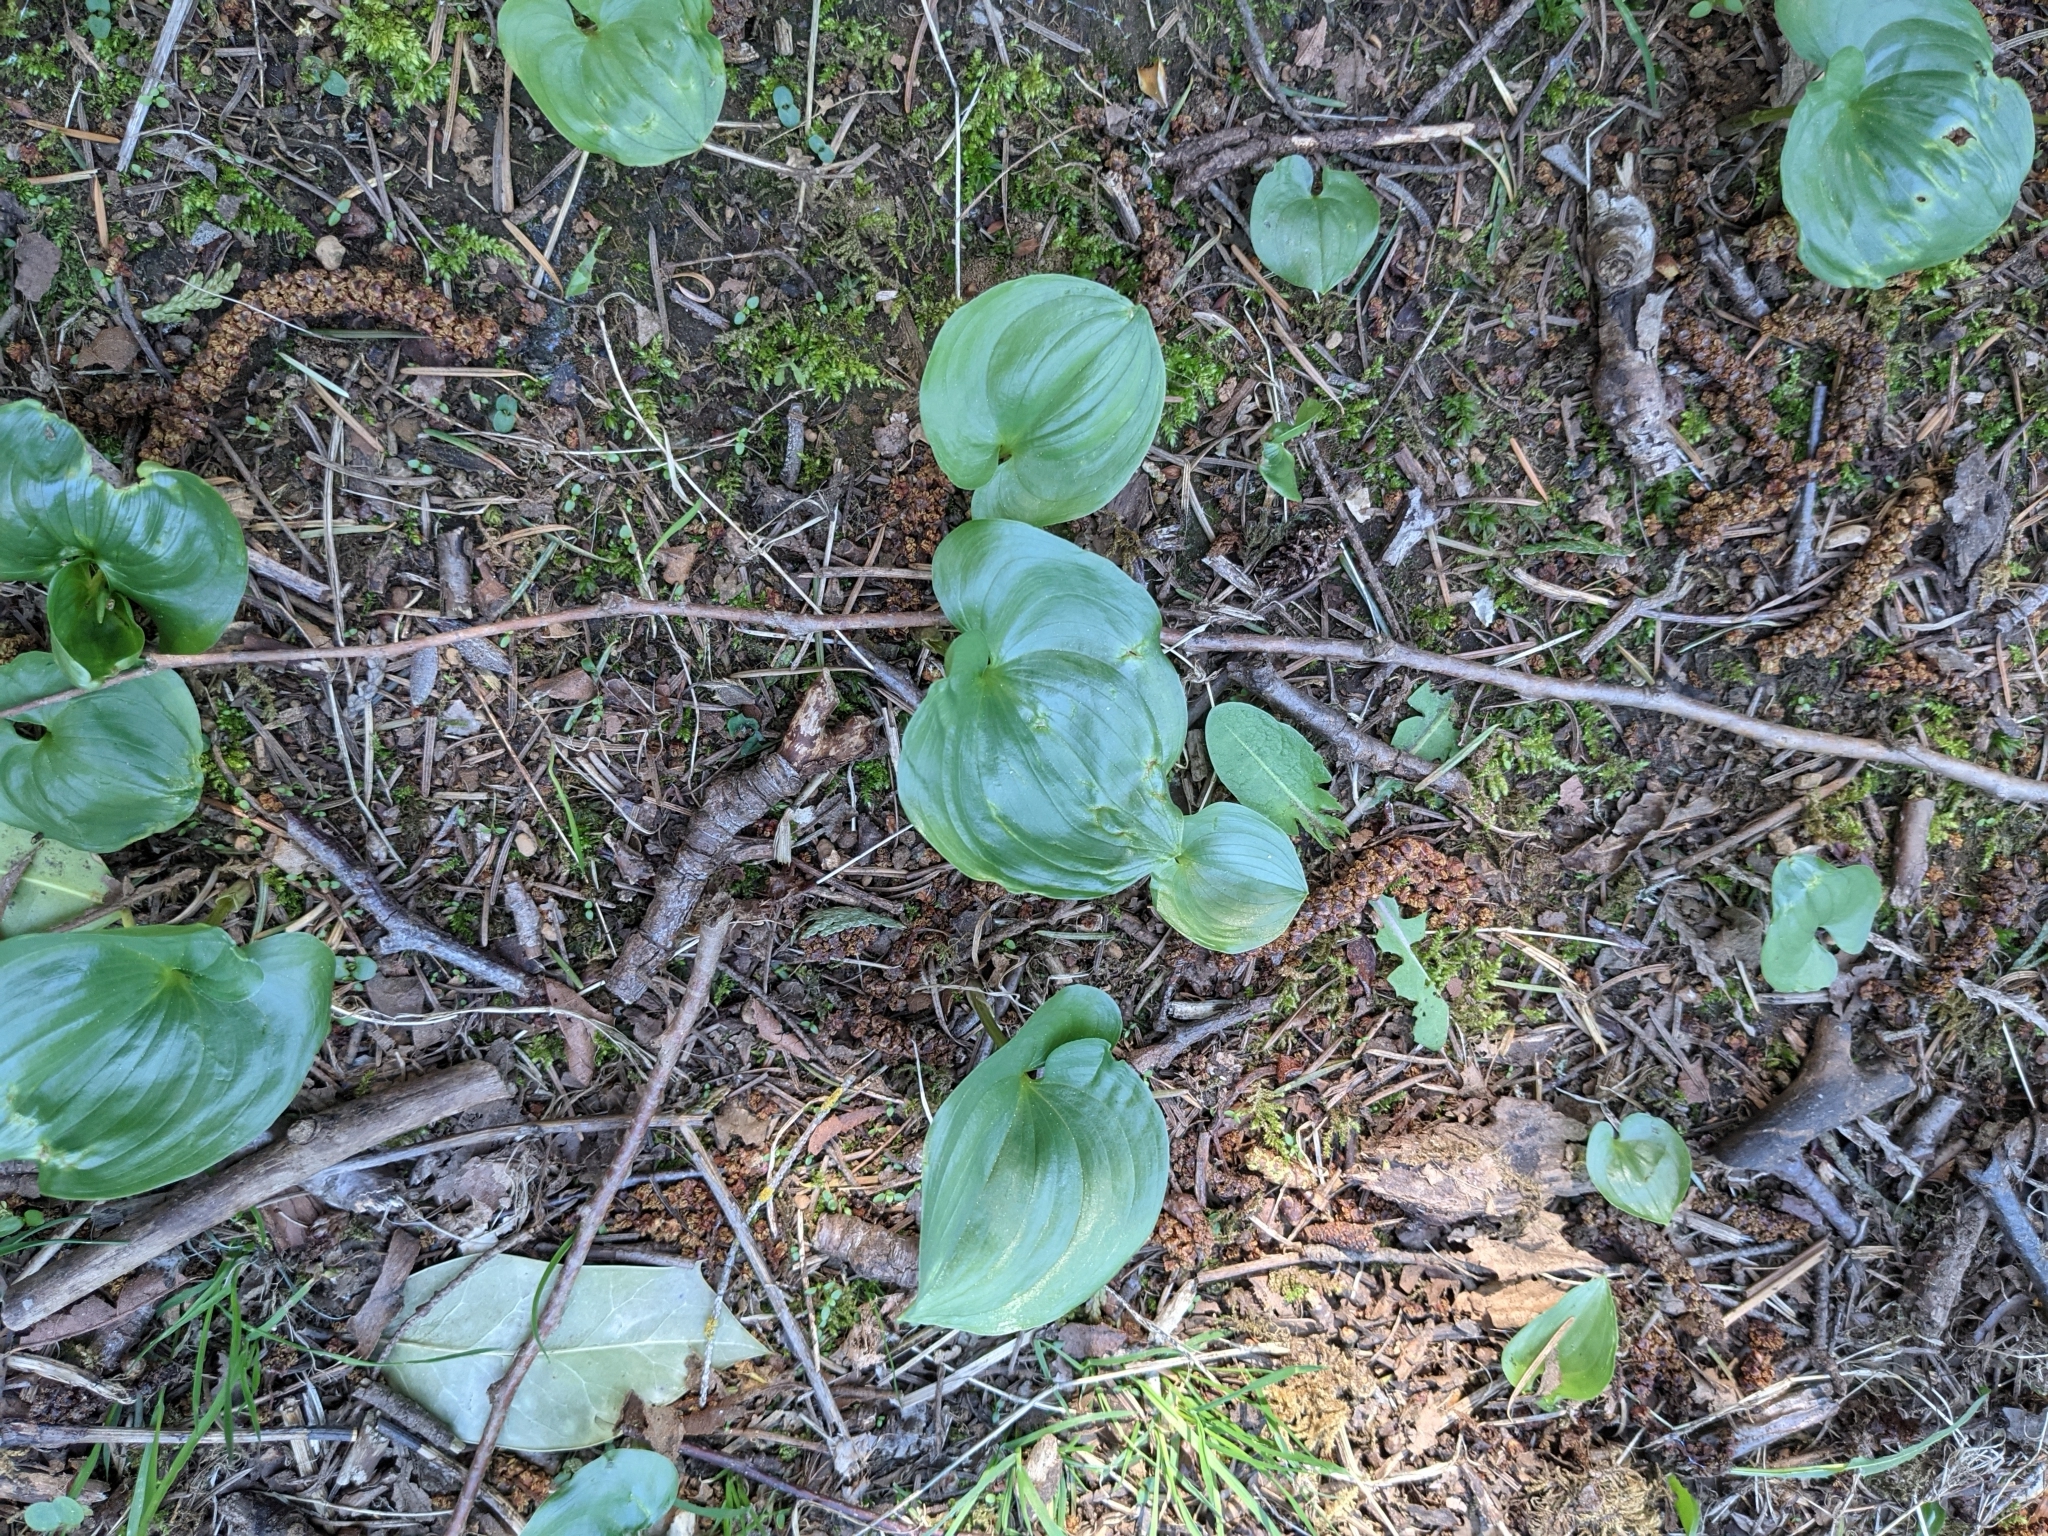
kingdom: Plantae
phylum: Tracheophyta
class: Liliopsida
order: Asparagales
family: Asparagaceae
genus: Maianthemum
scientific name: Maianthemum dilatatum
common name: False lily-of-the-valley
